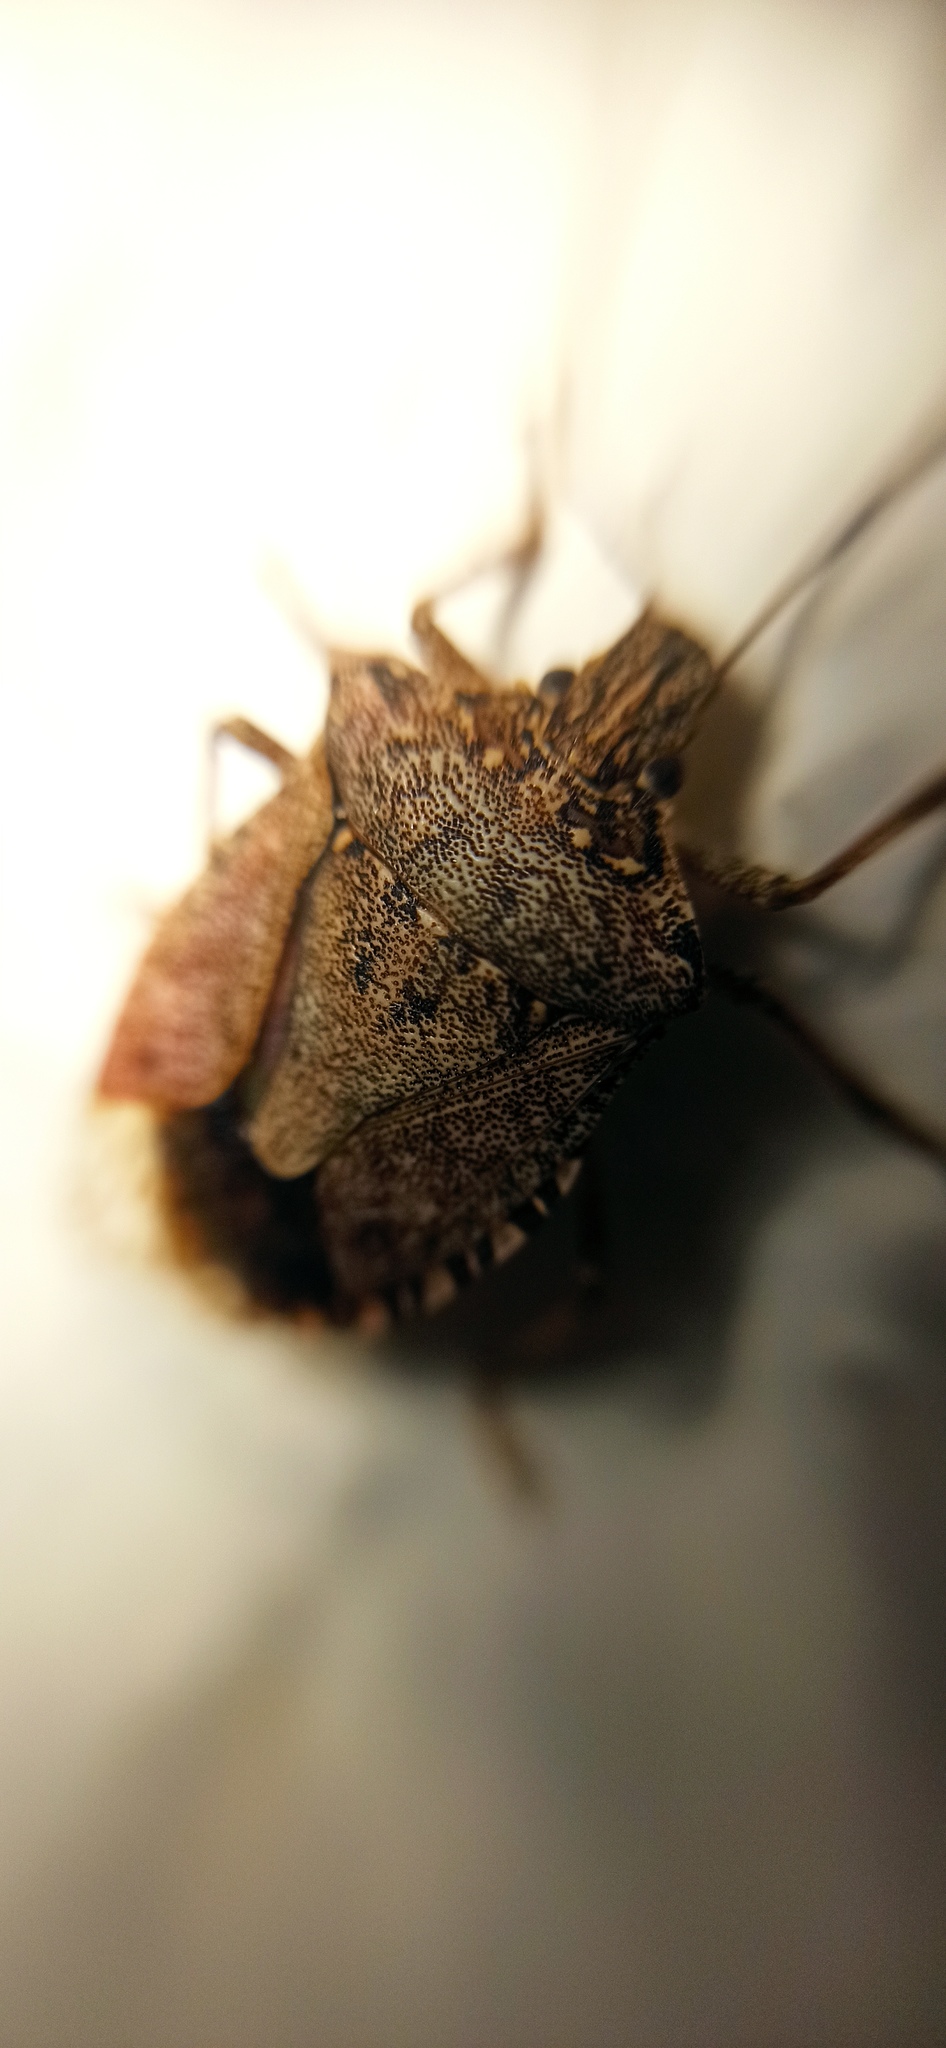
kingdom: Animalia
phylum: Arthropoda
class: Insecta
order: Hemiptera
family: Pentatomidae
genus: Halyomorpha
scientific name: Halyomorpha halys
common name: Brown marmorated stink bug
